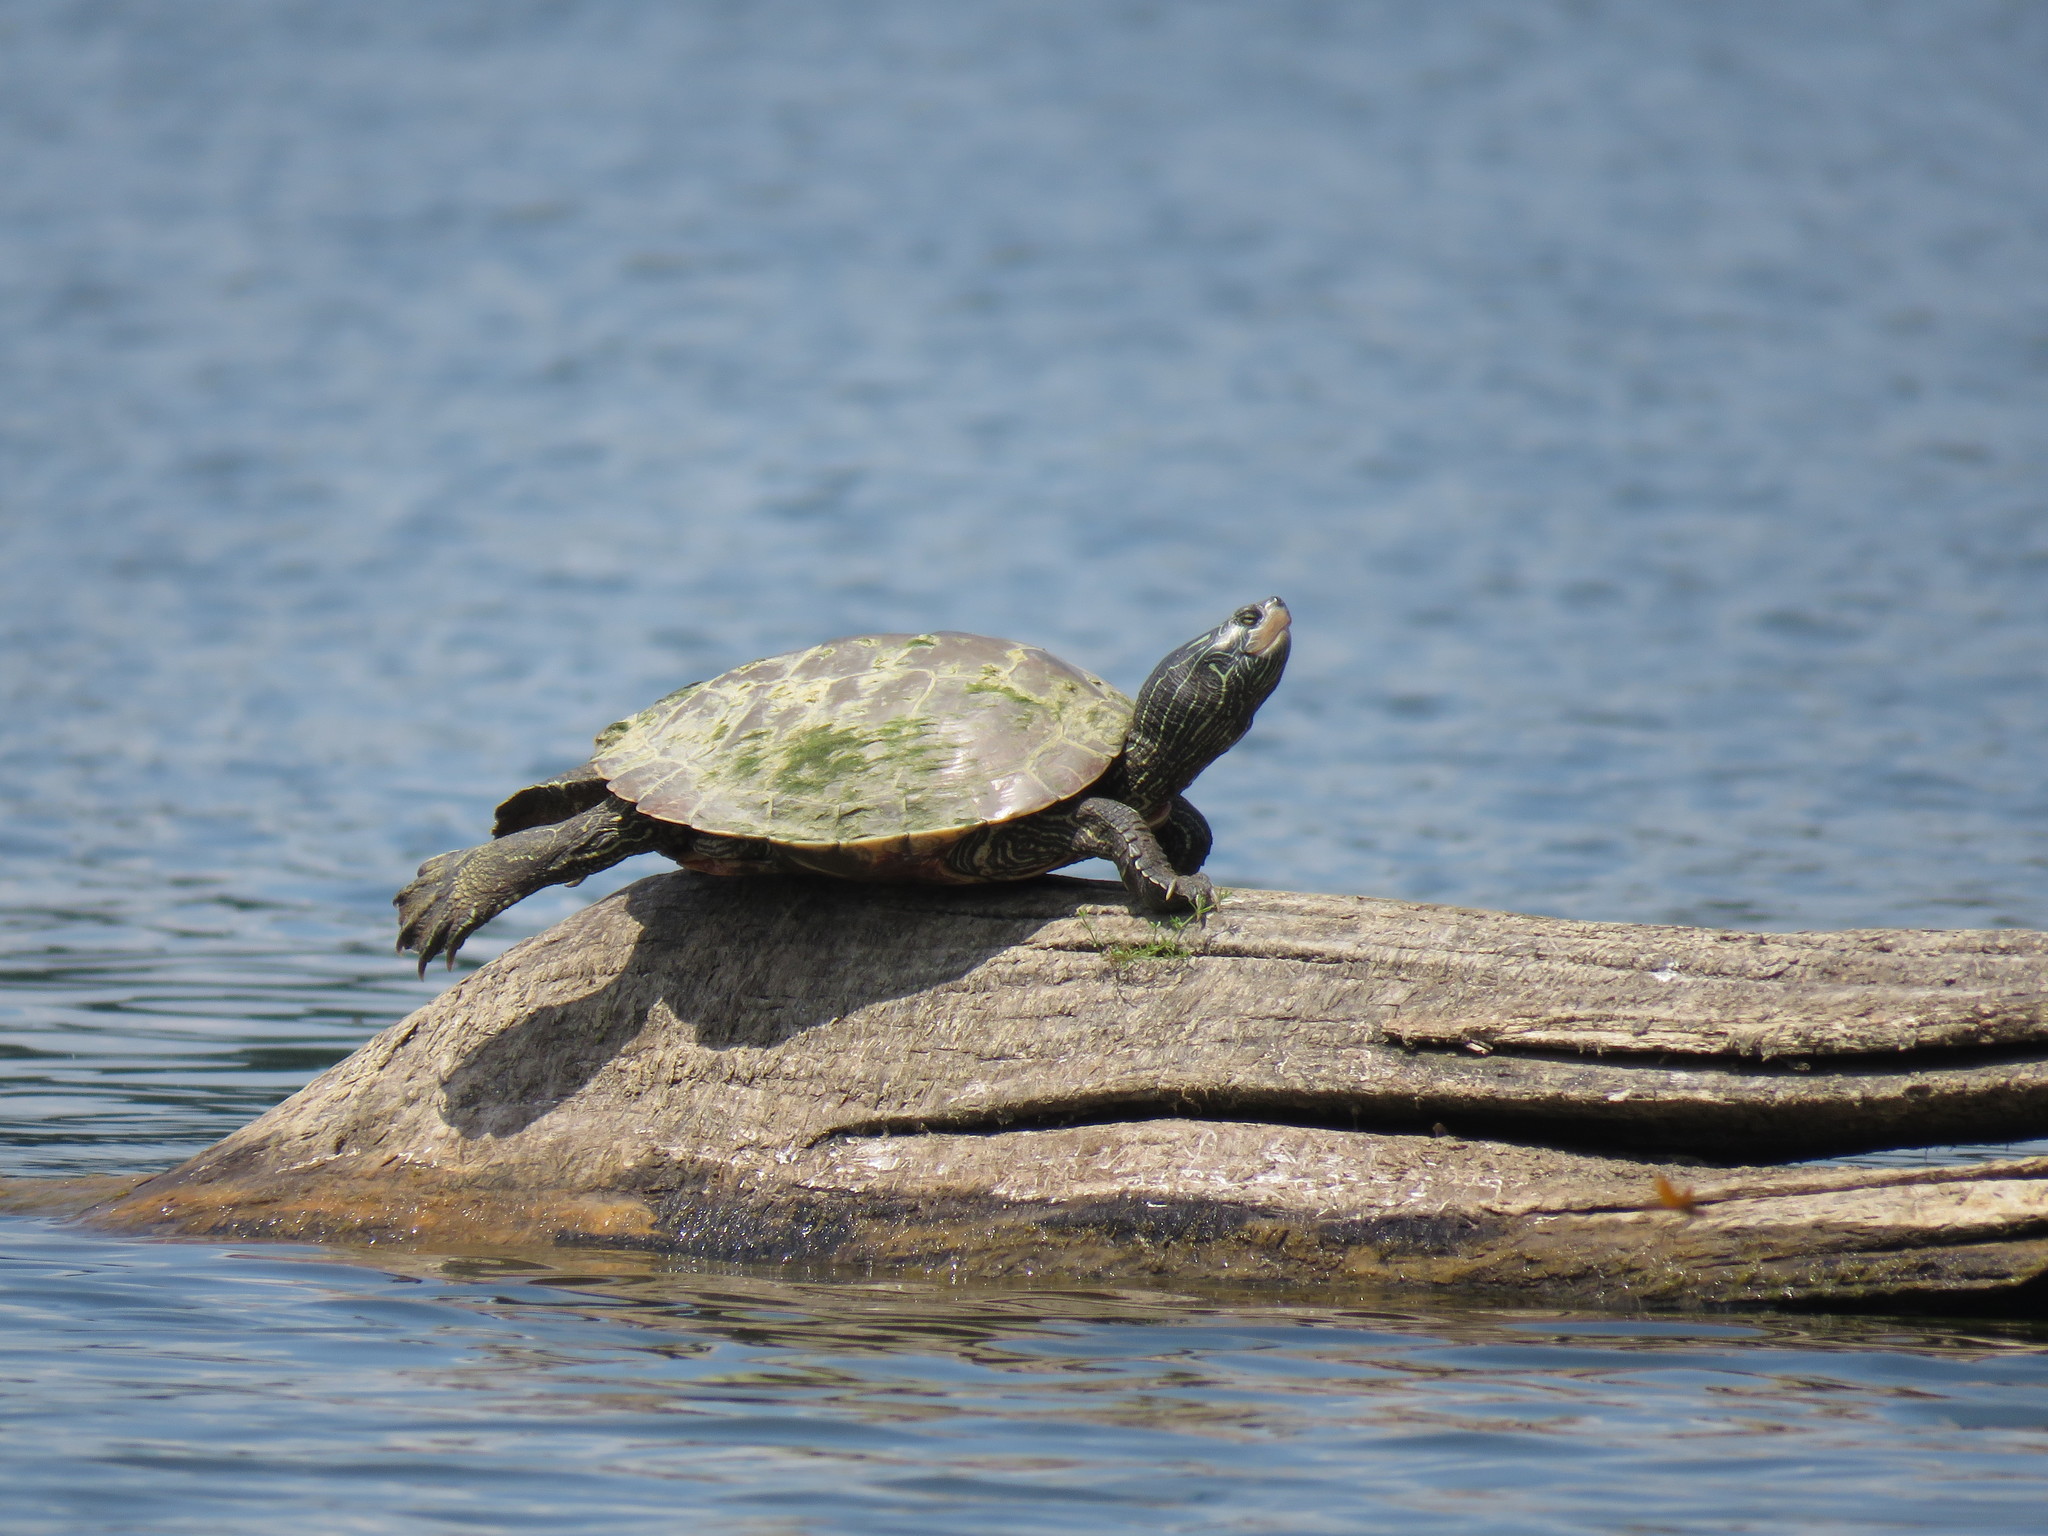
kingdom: Animalia
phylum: Chordata
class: Testudines
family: Emydidae
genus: Graptemys
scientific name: Graptemys geographica
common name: Common map turtle
